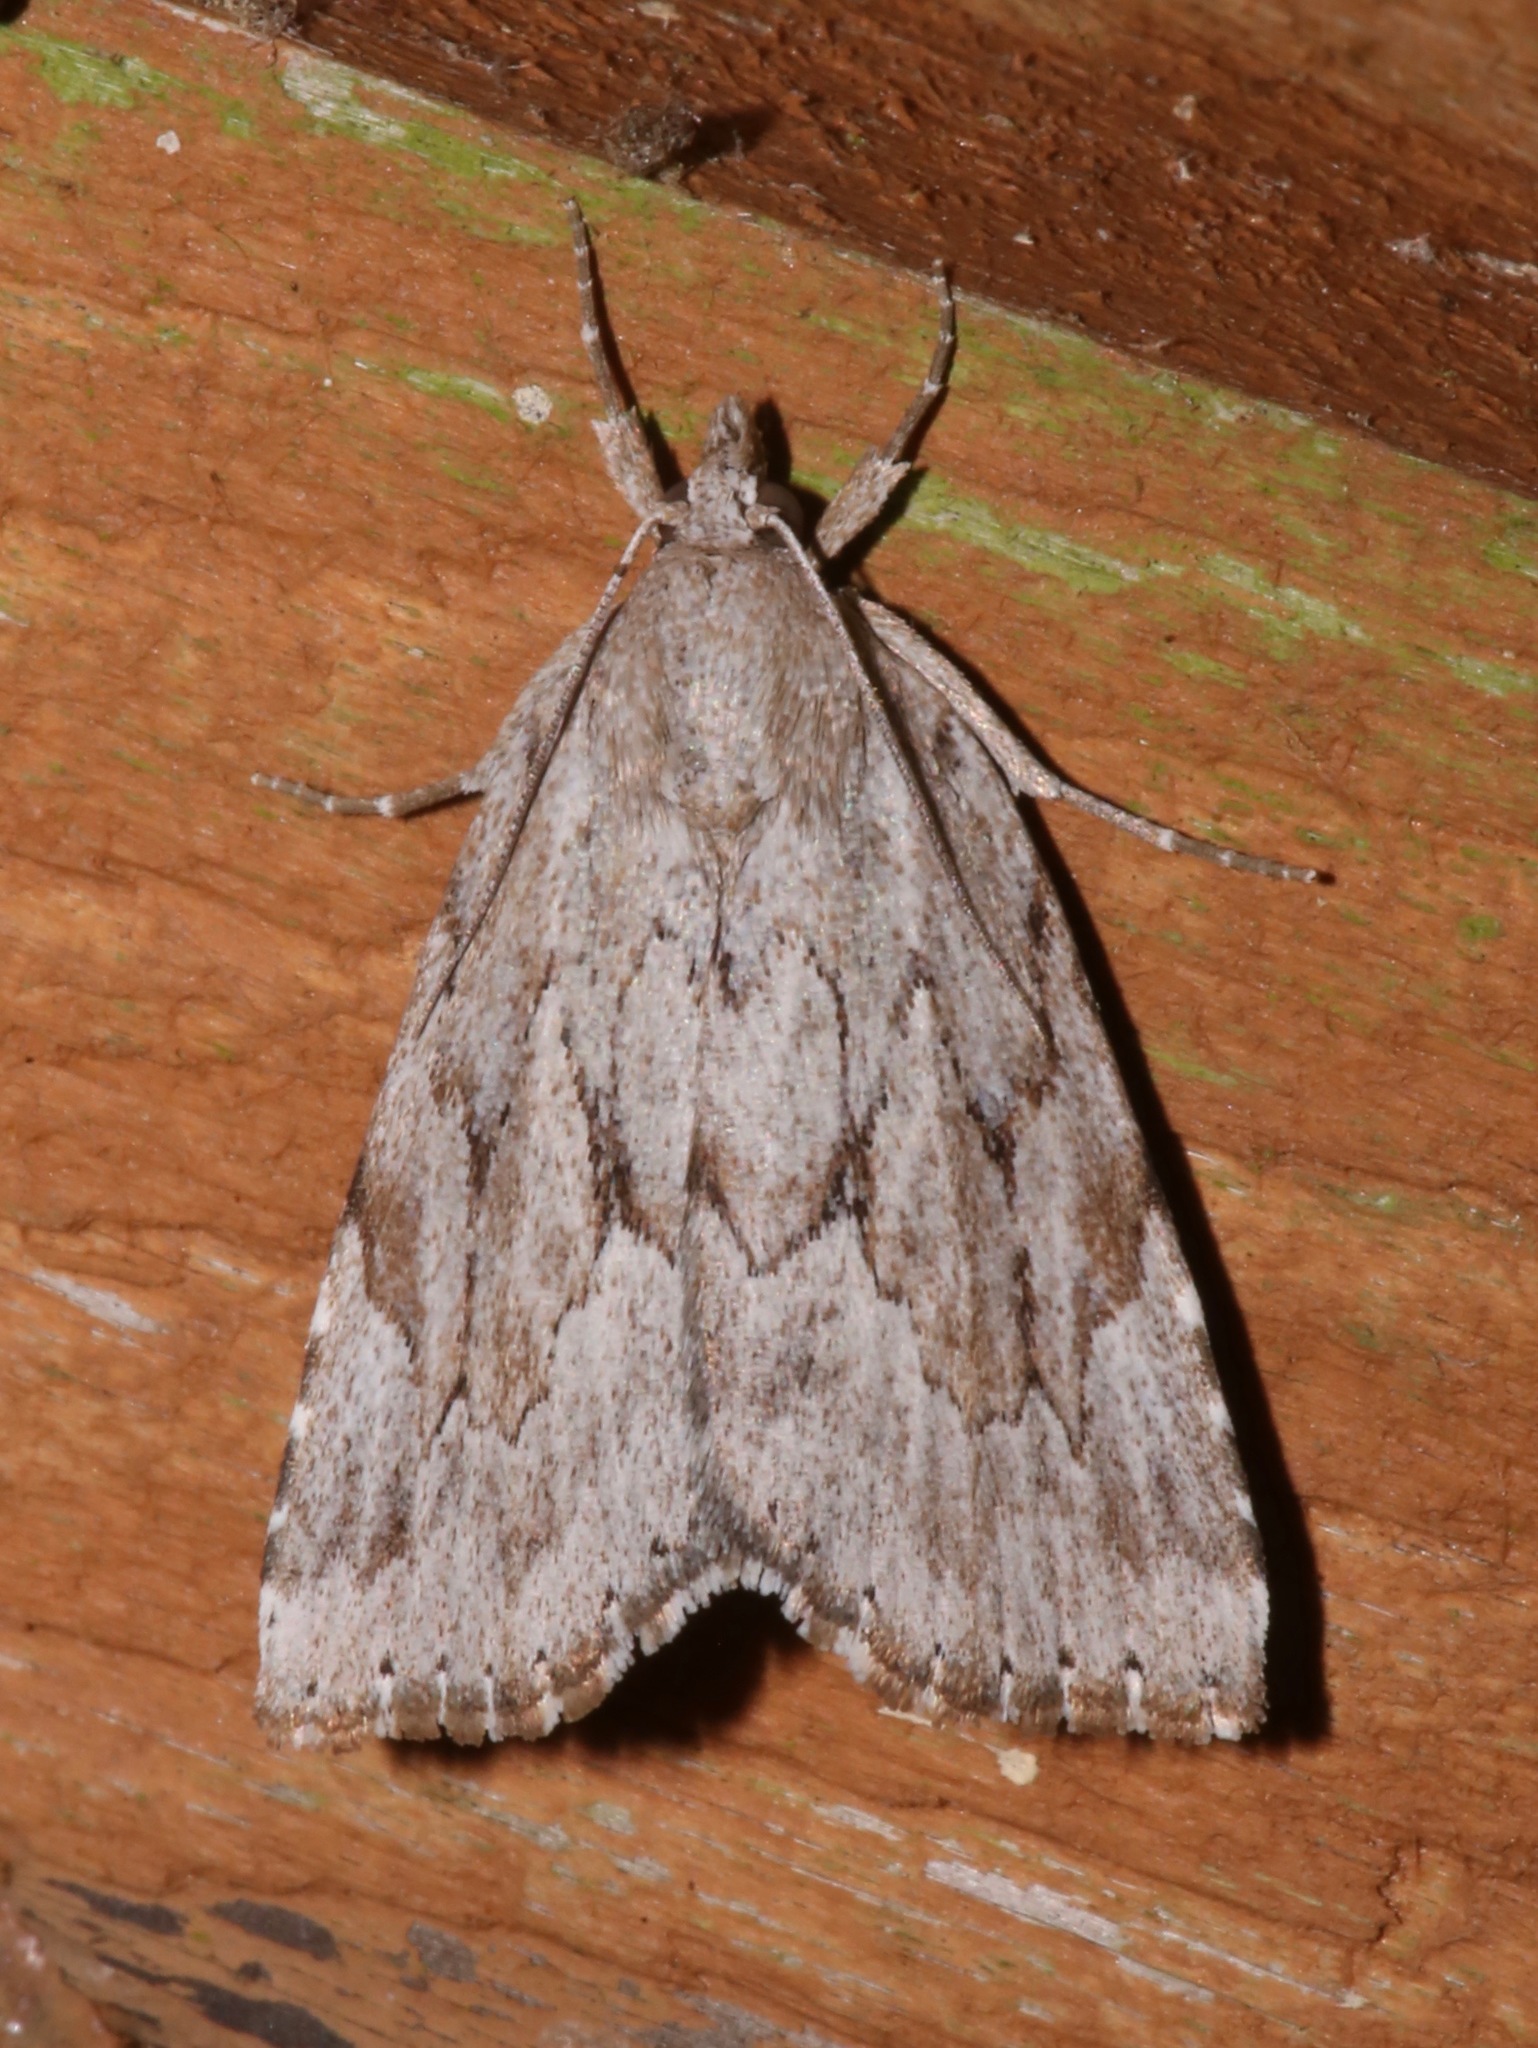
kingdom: Animalia
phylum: Arthropoda
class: Insecta
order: Lepidoptera
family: Erebidae
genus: Cutina
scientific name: Cutina albopunctella
